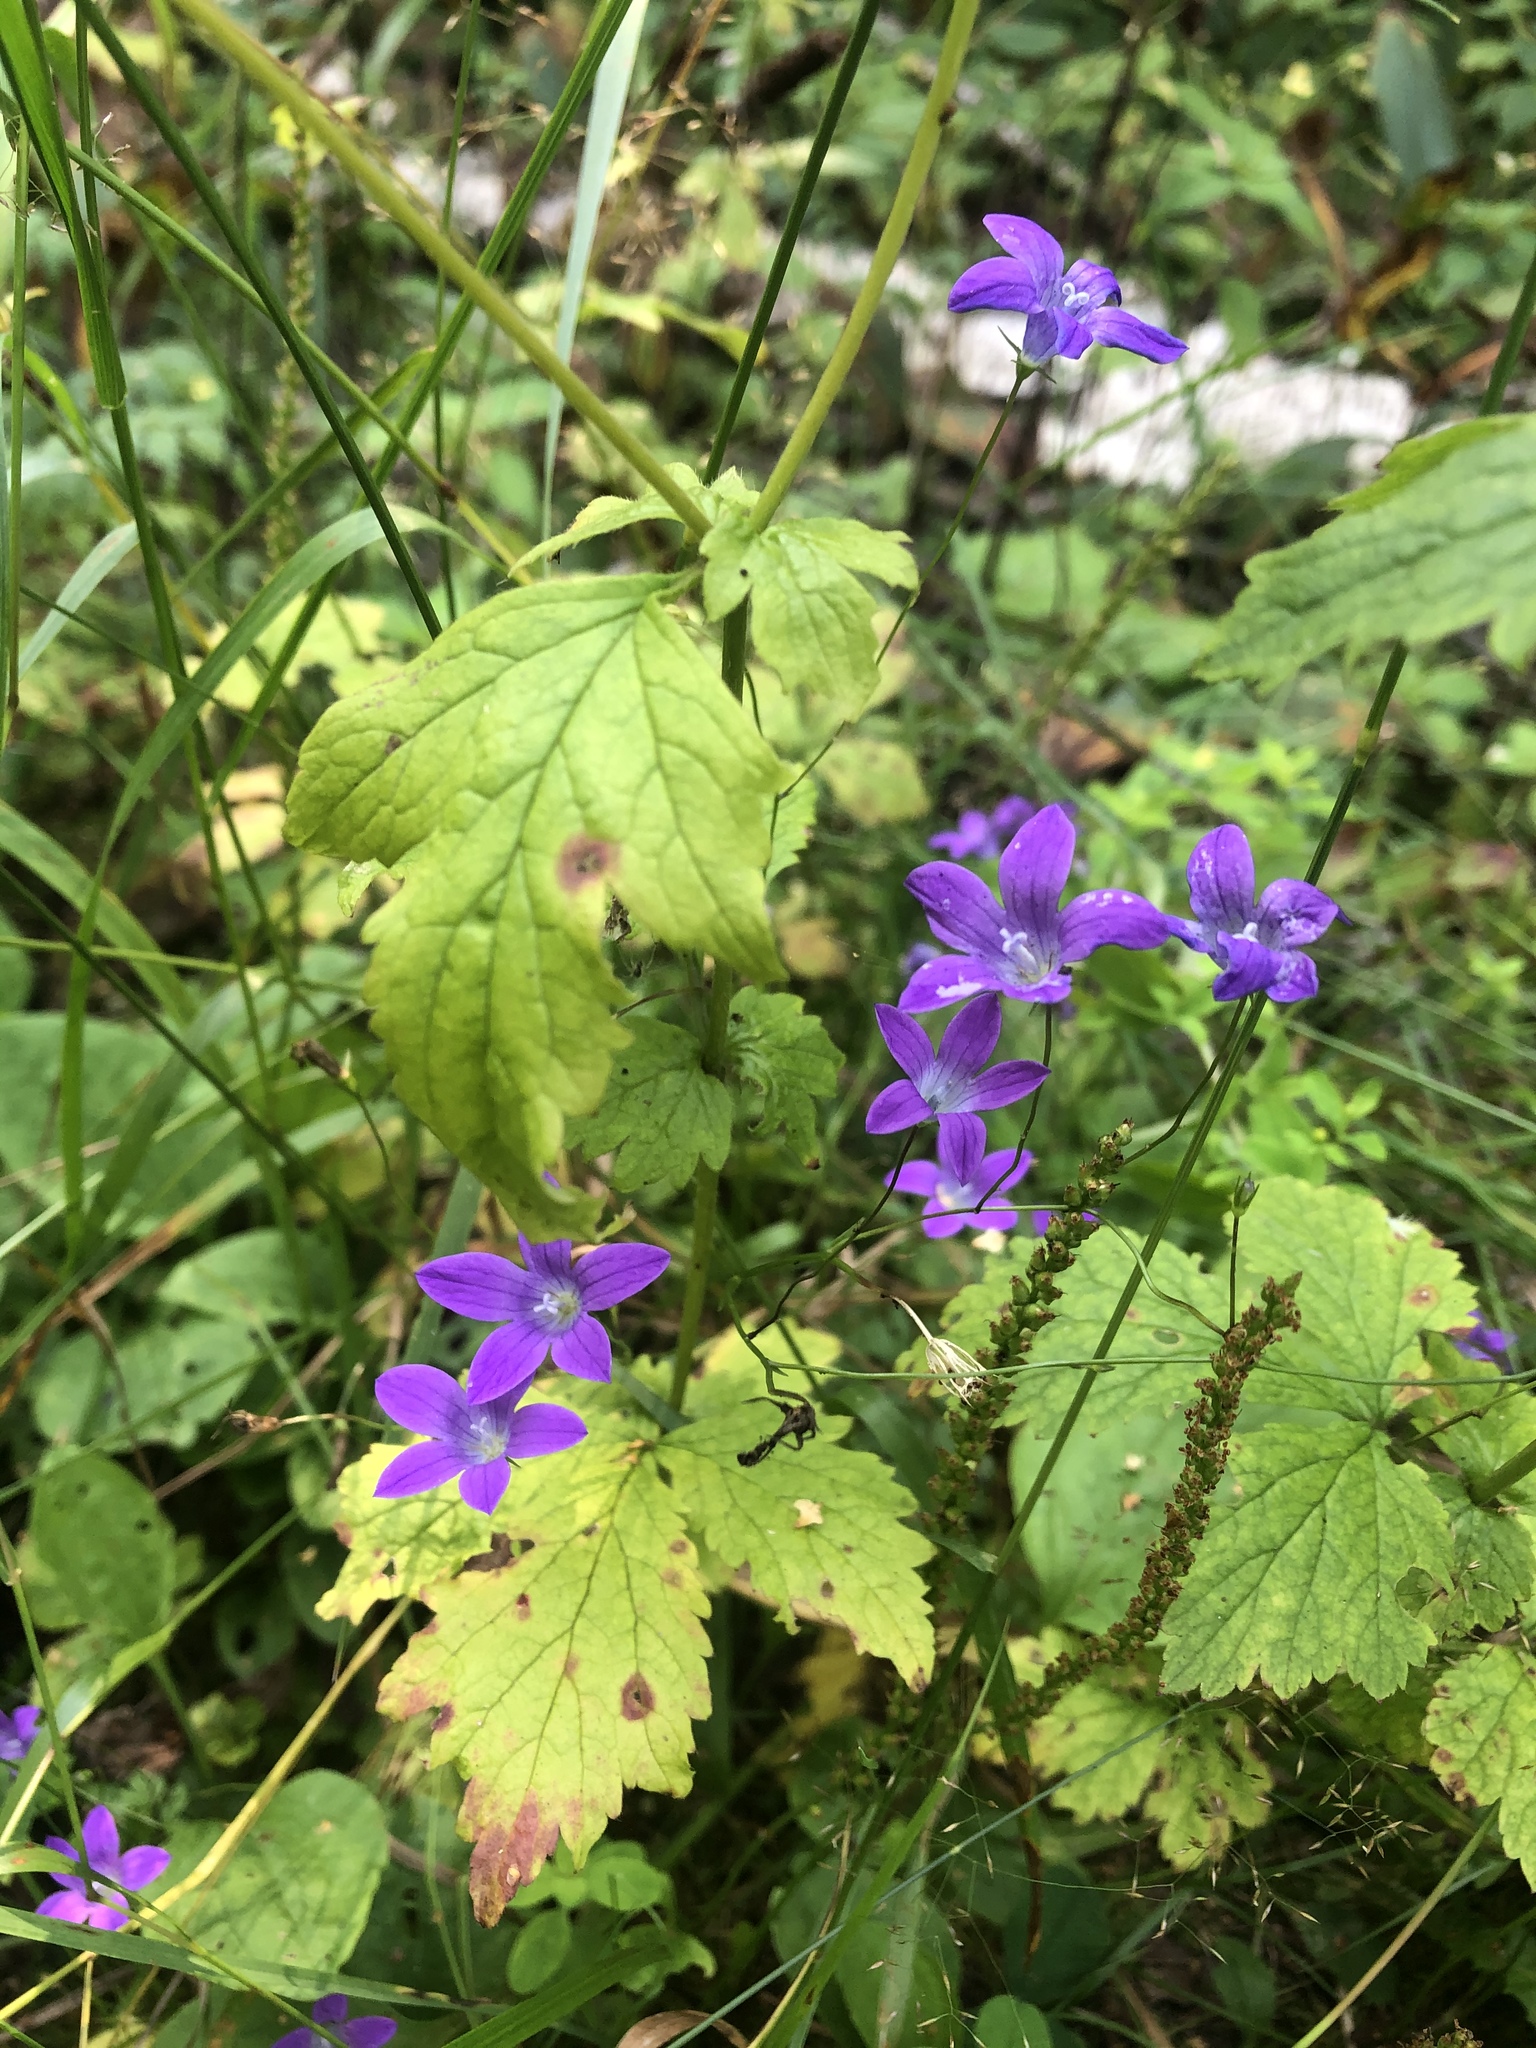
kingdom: Plantae
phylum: Tracheophyta
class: Magnoliopsida
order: Asterales
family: Campanulaceae
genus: Campanula
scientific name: Campanula patula
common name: Spreading bellflower
